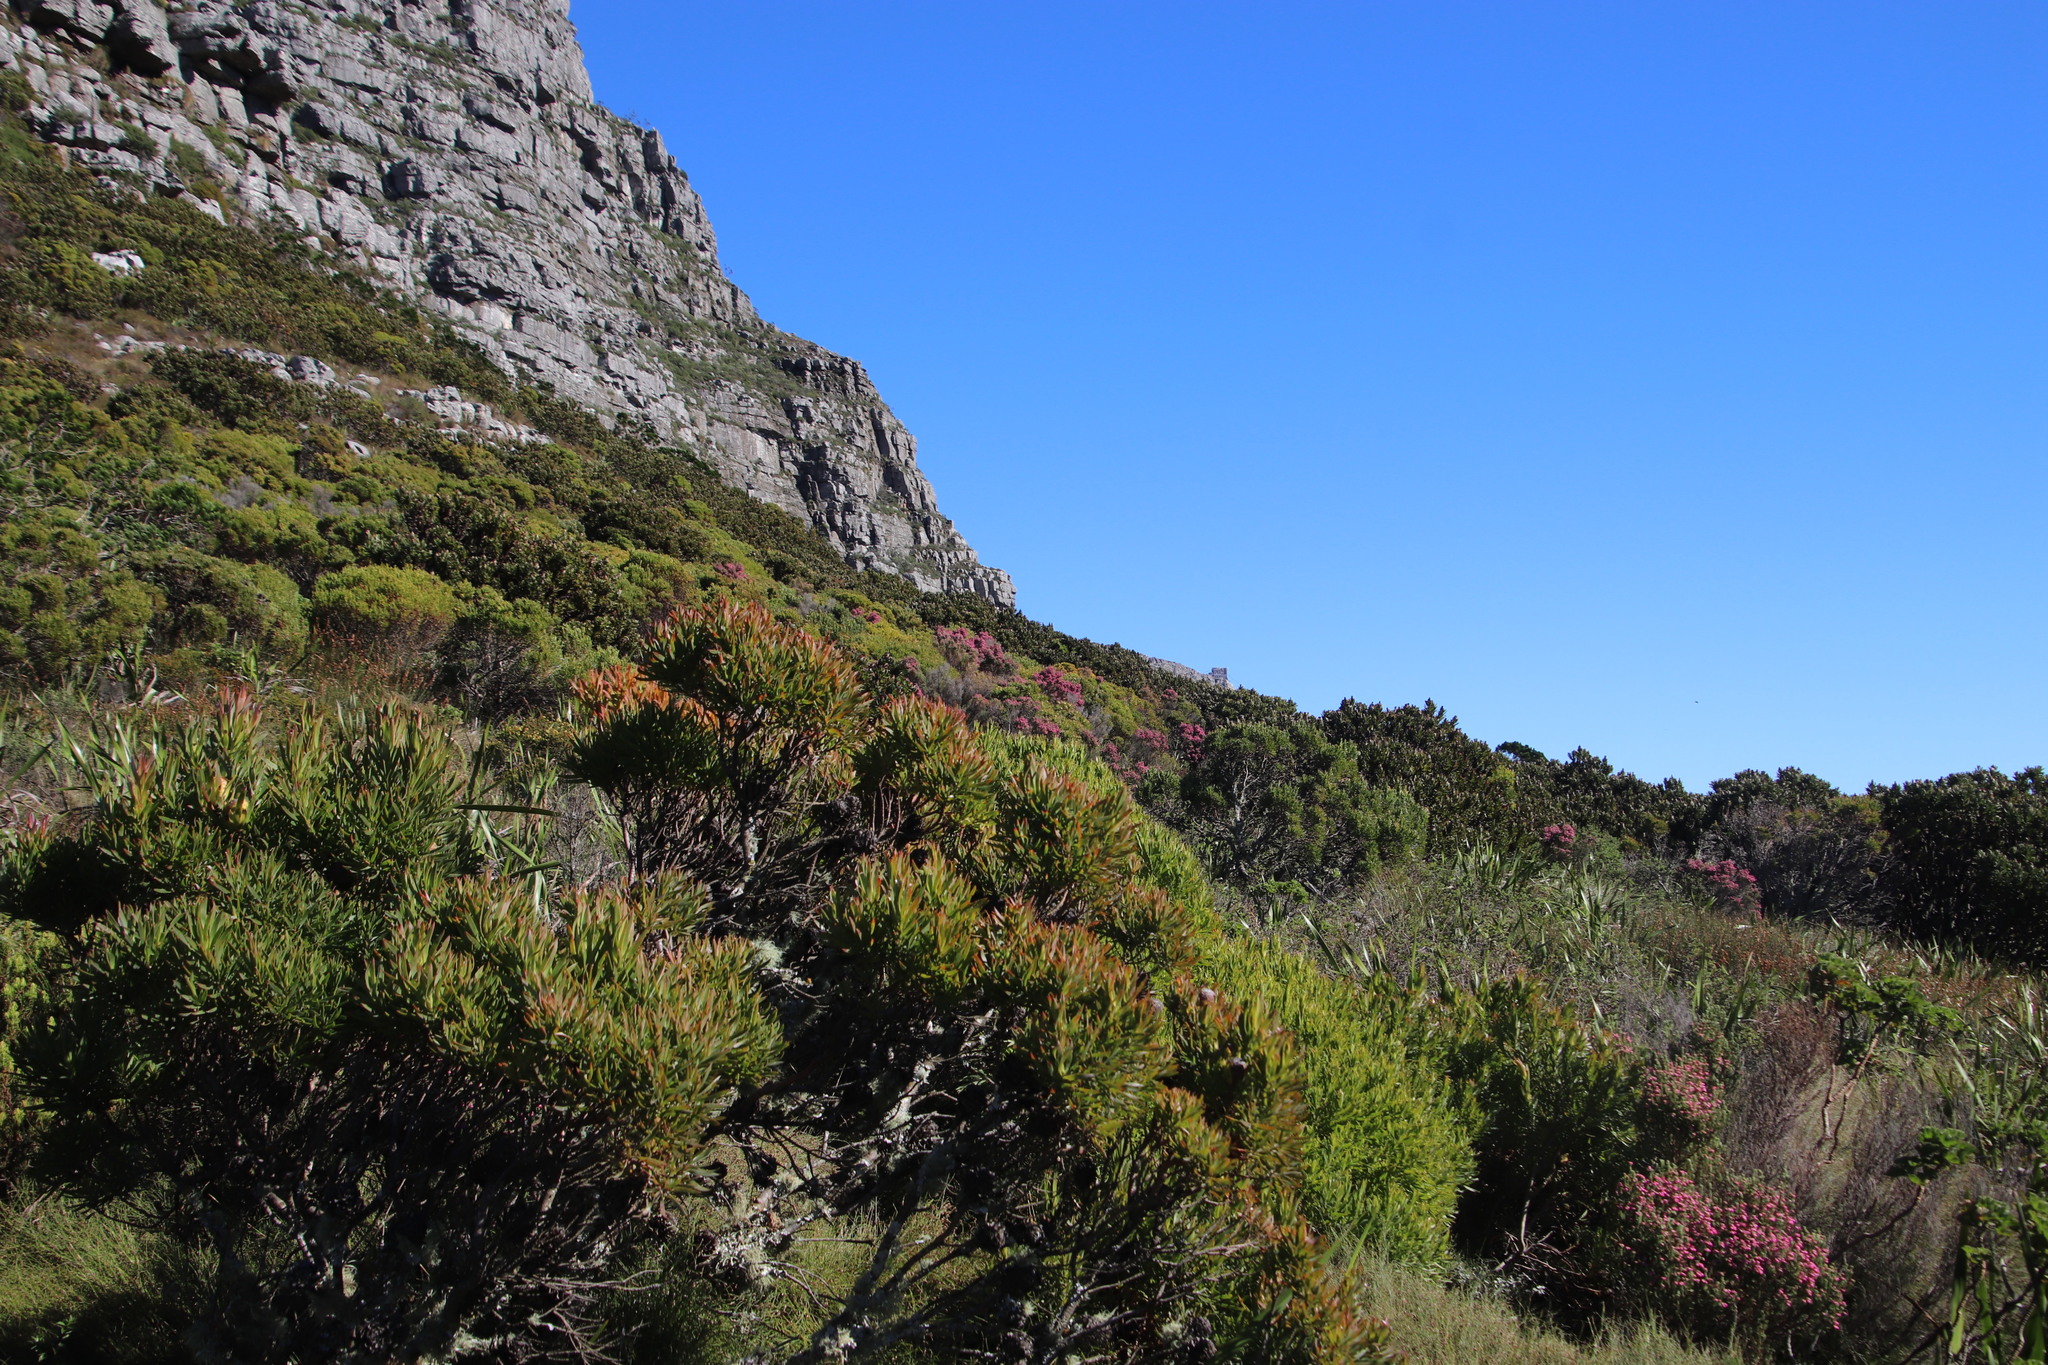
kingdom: Plantae
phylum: Tracheophyta
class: Magnoliopsida
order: Ericales
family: Ericaceae
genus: Erica
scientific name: Erica baccans
